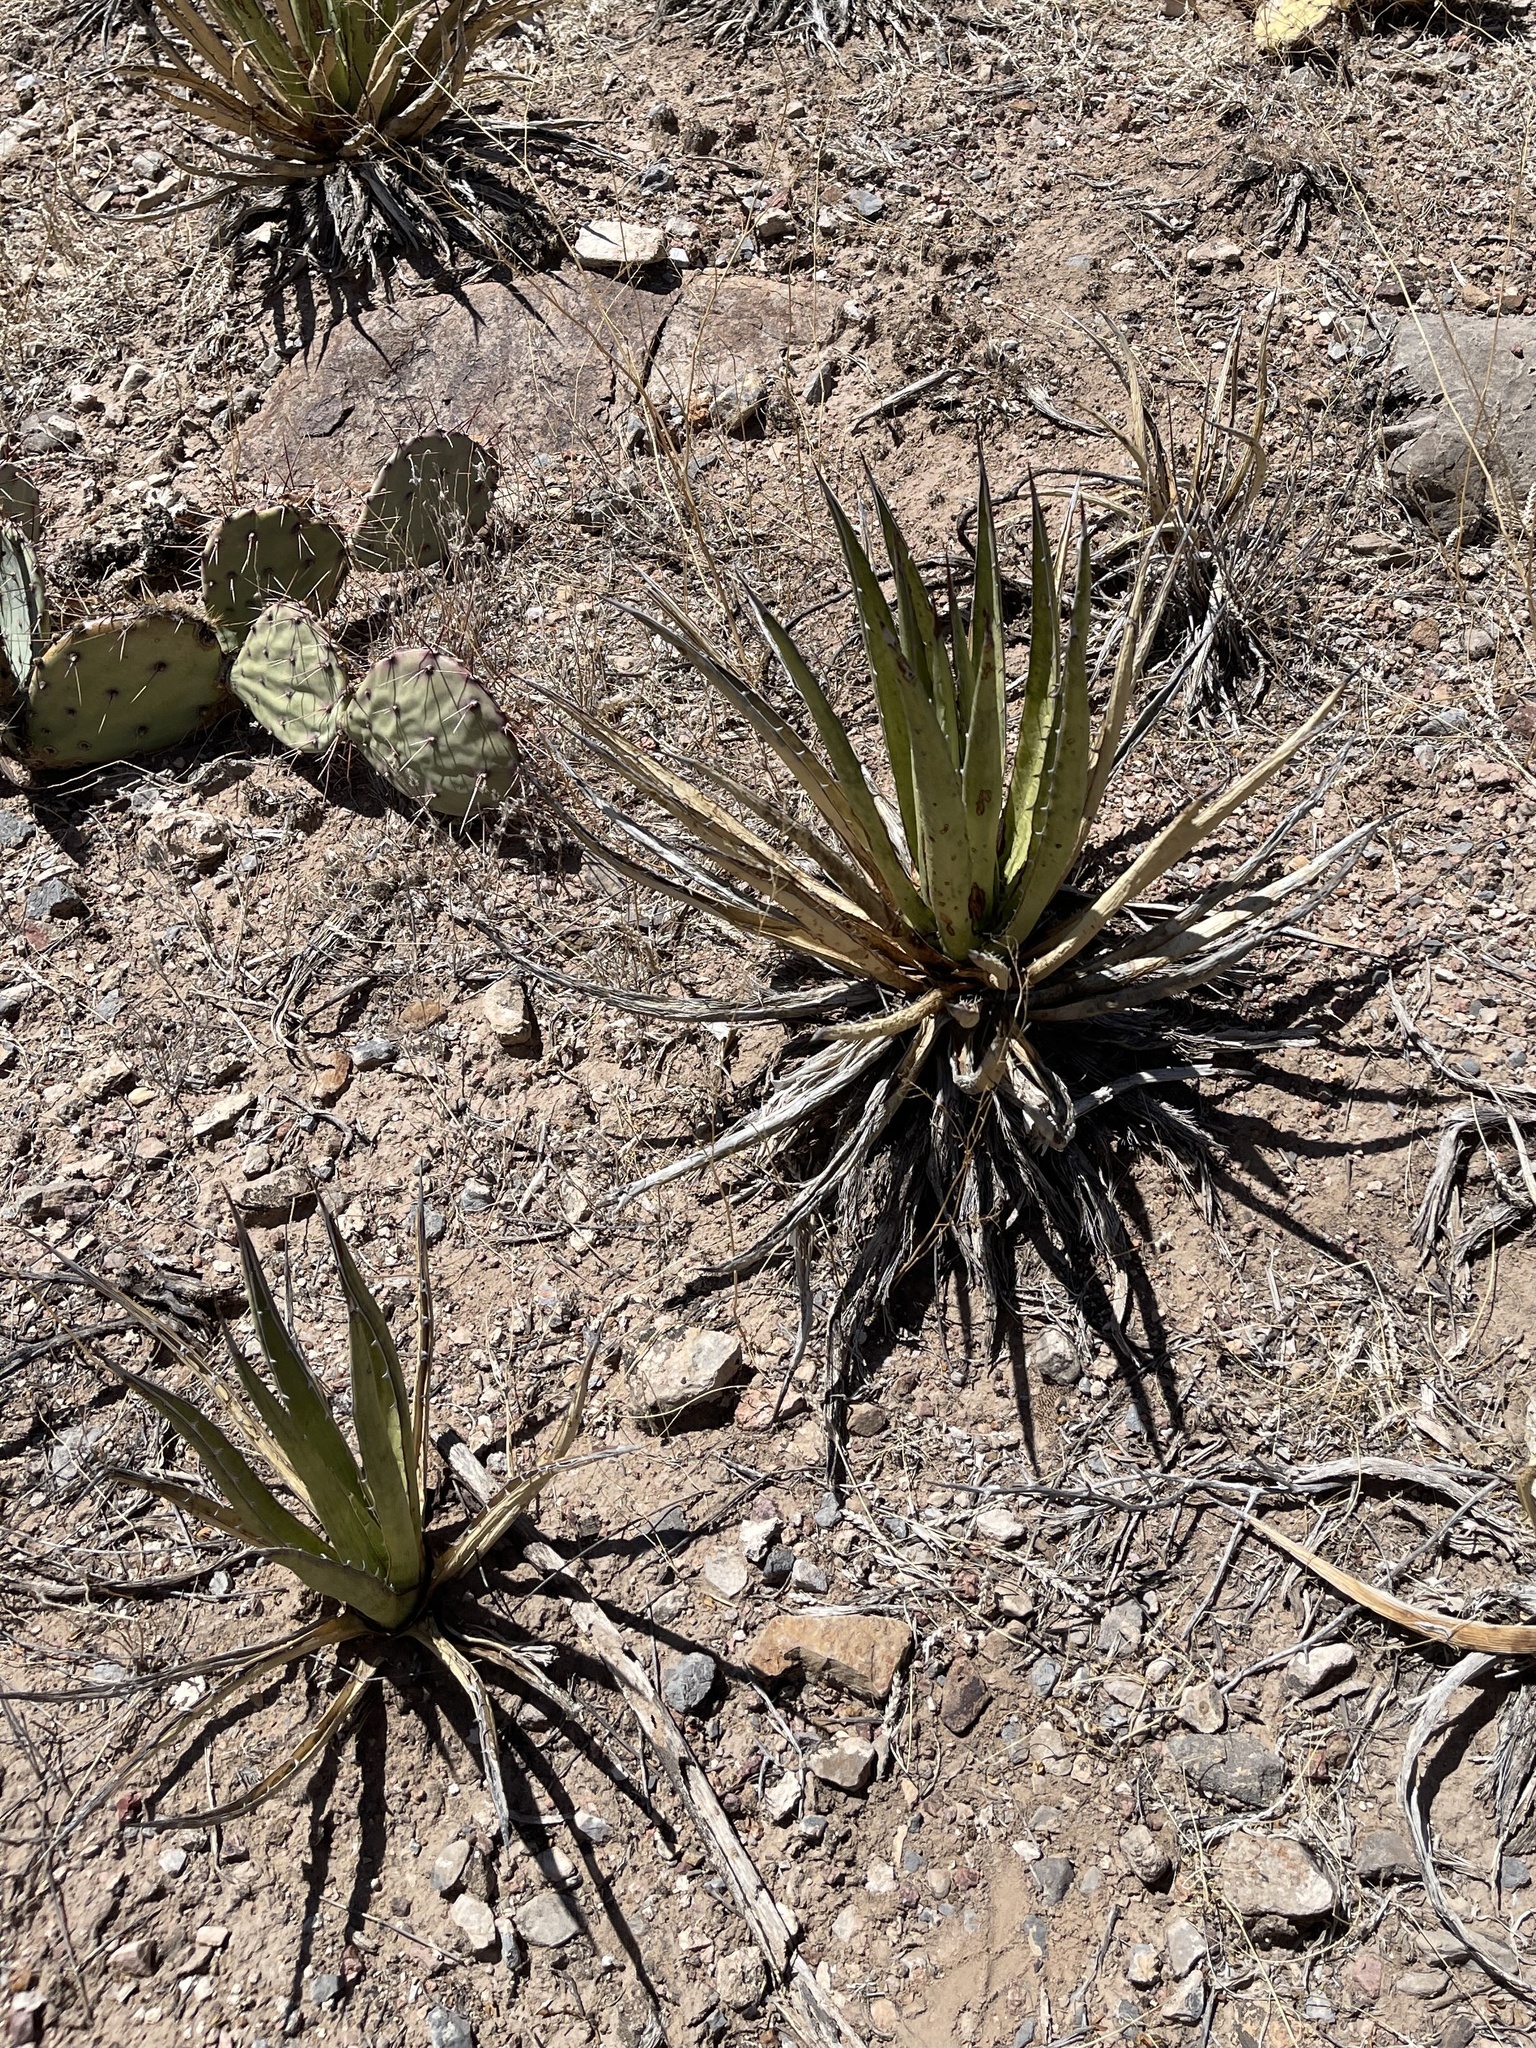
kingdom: Plantae
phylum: Tracheophyta
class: Liliopsida
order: Asparagales
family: Asparagaceae
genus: Agave
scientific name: Agave lechuguilla
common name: Lecheguilla agave
